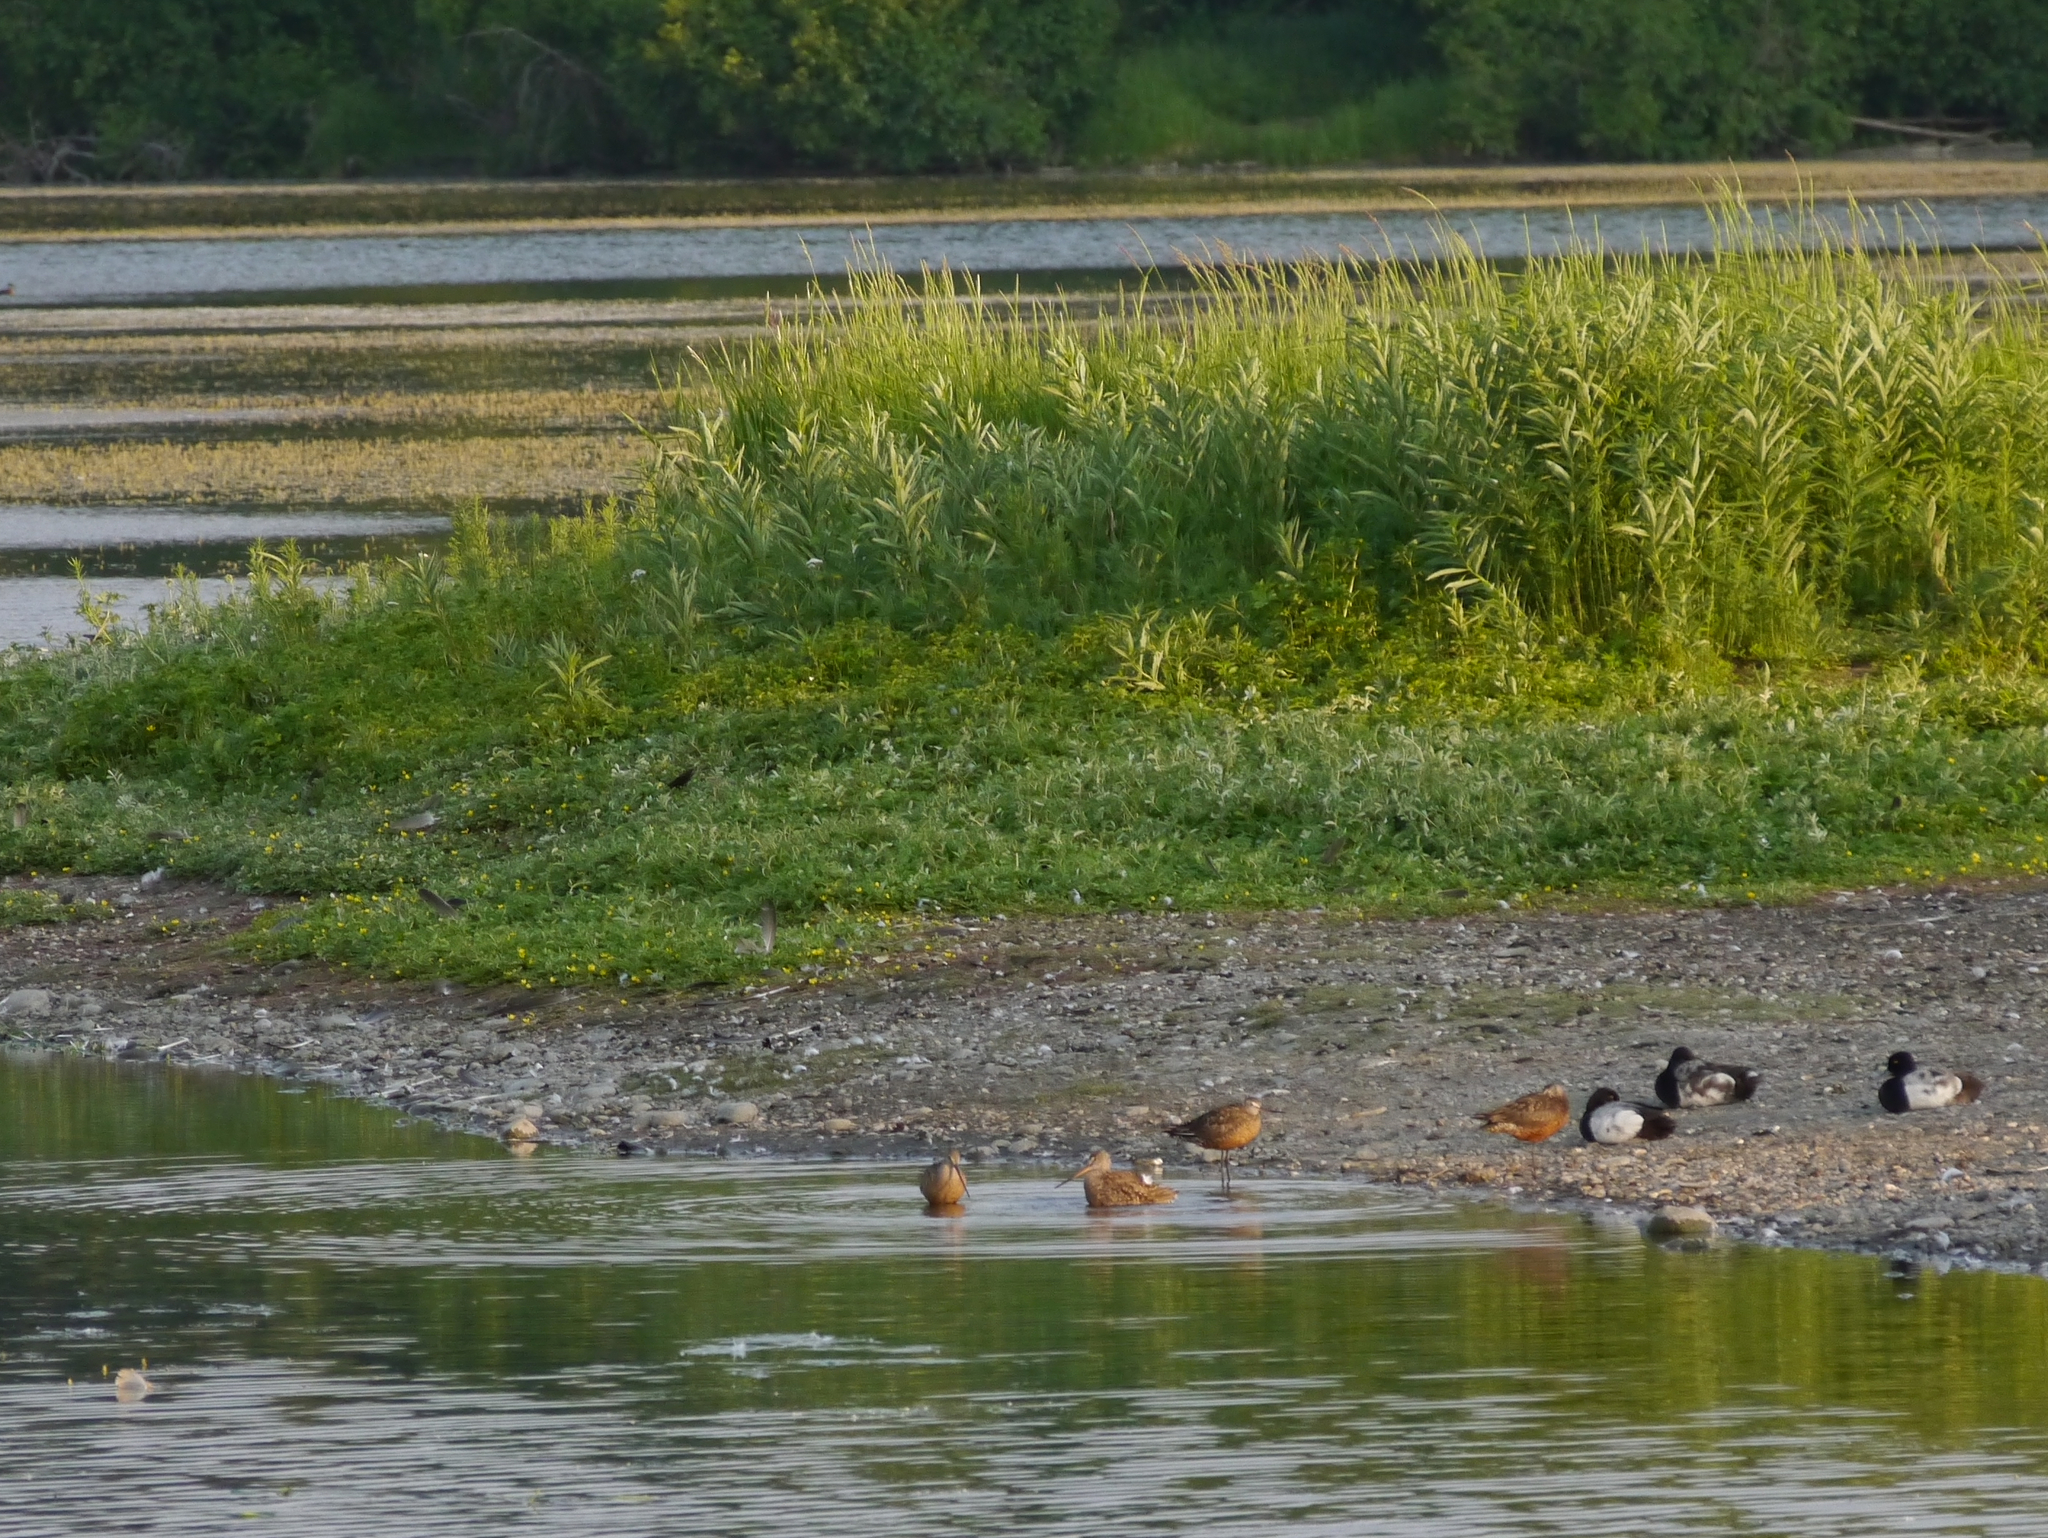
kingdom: Animalia
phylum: Chordata
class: Aves
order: Charadriiformes
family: Scolopacidae
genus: Limosa
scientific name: Limosa haemastica
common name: Hudsonian godwit
